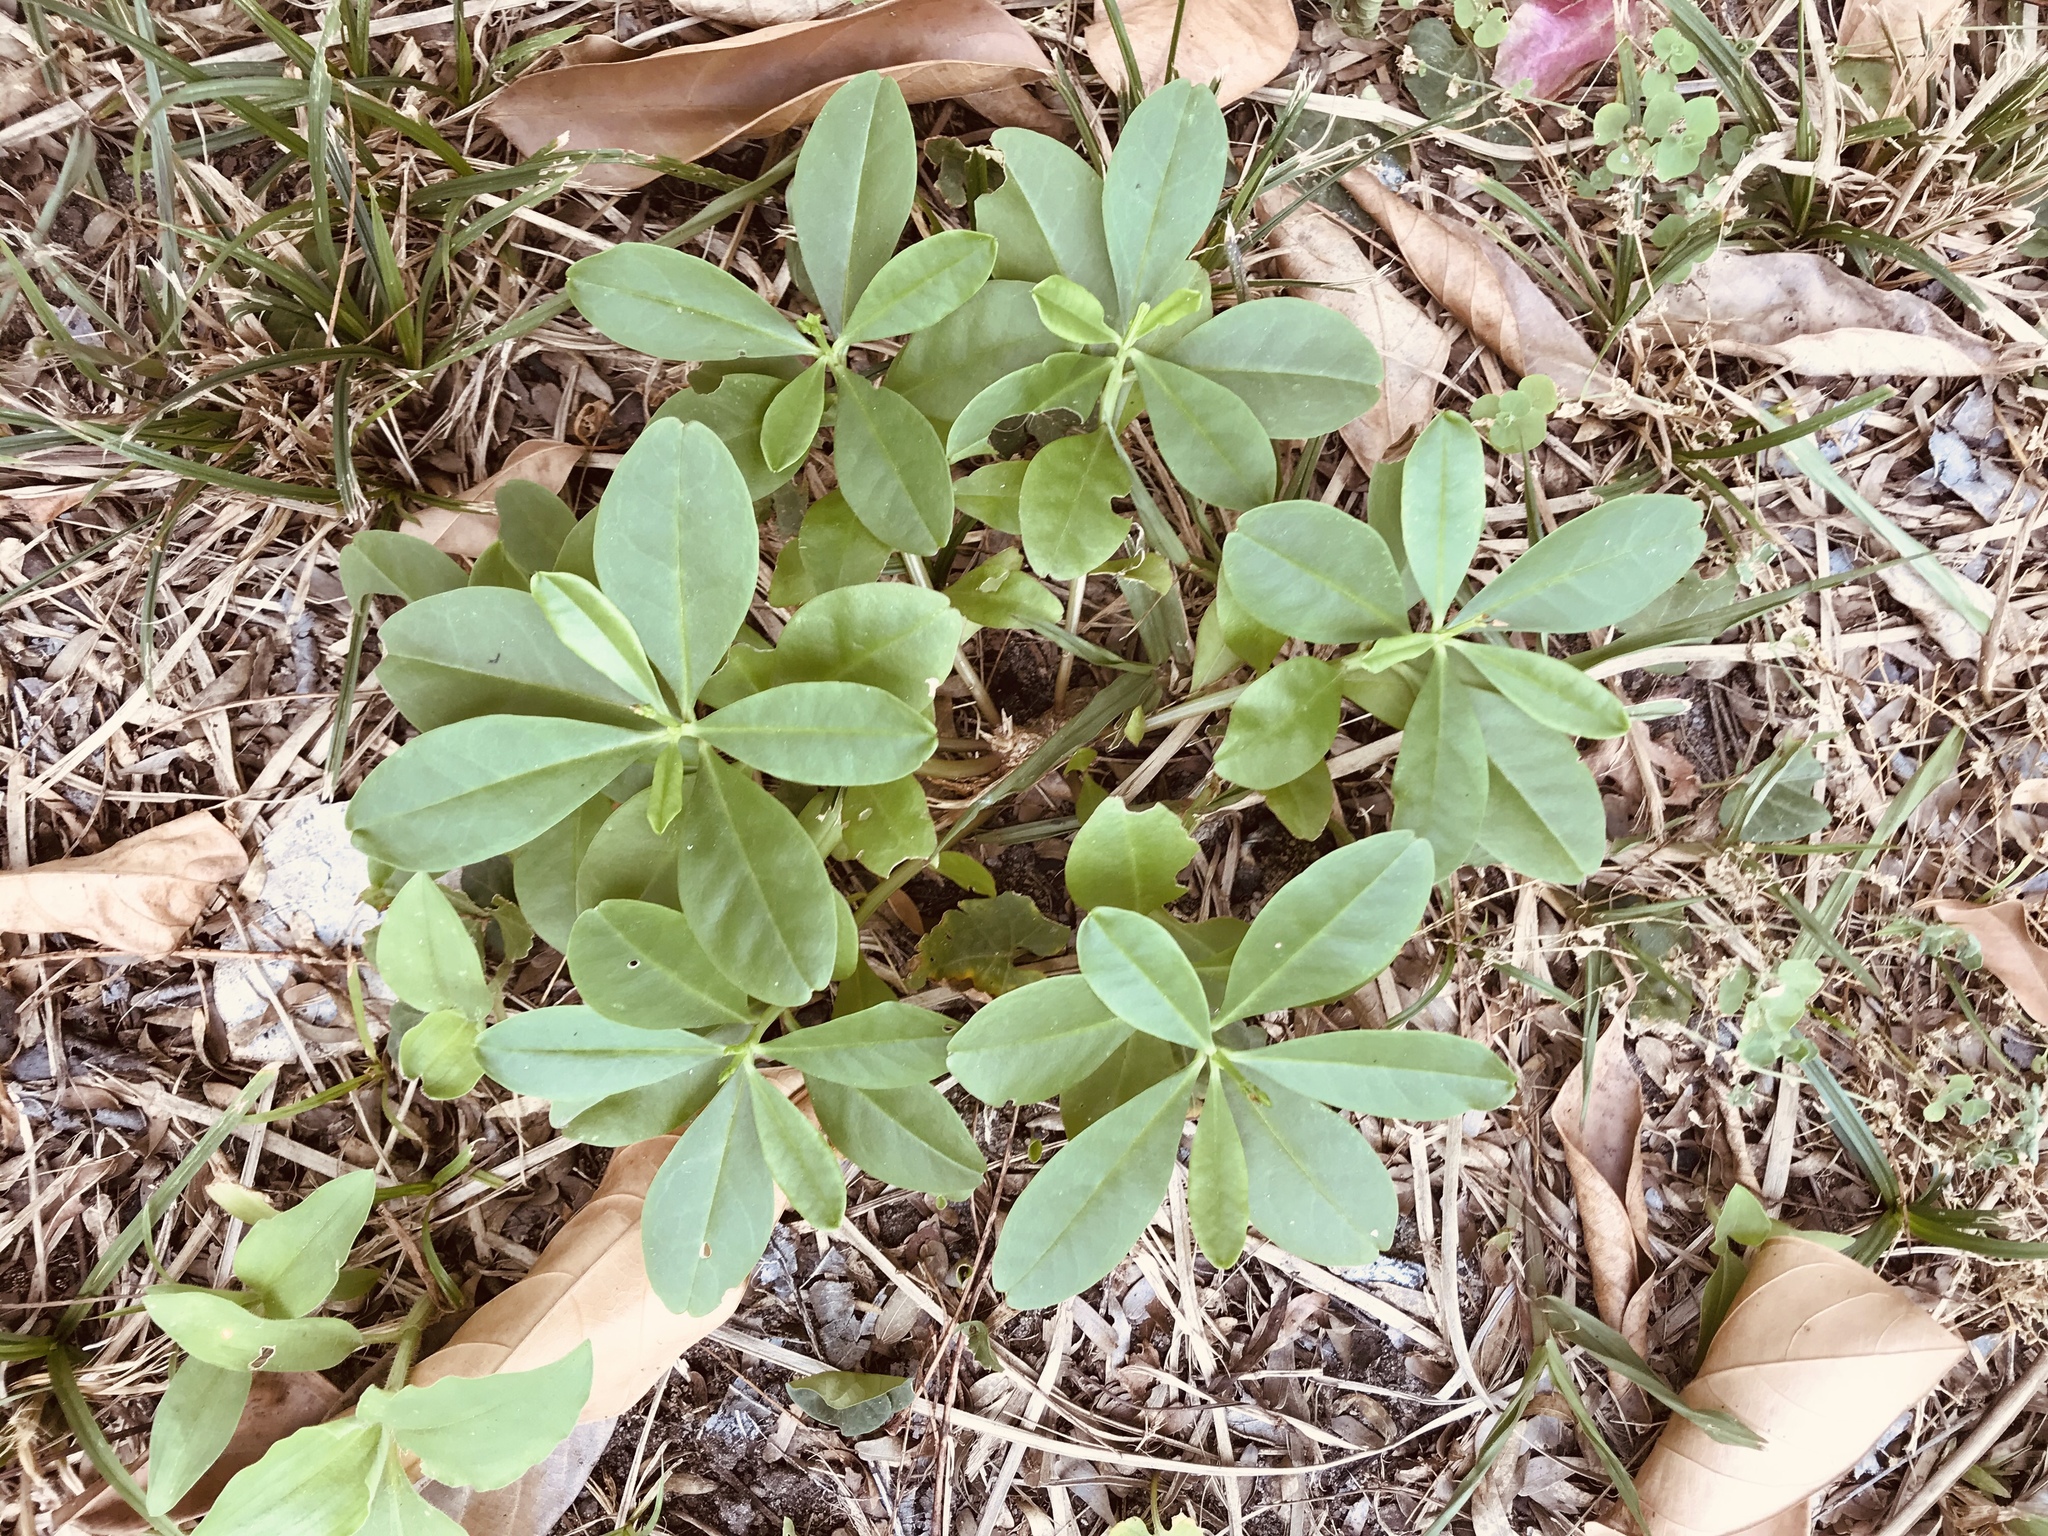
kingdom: Plantae
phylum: Tracheophyta
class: Magnoliopsida
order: Caryophyllales
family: Talinaceae
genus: Talinum
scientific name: Talinum fruticosum
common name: Verdolaga-francesa
